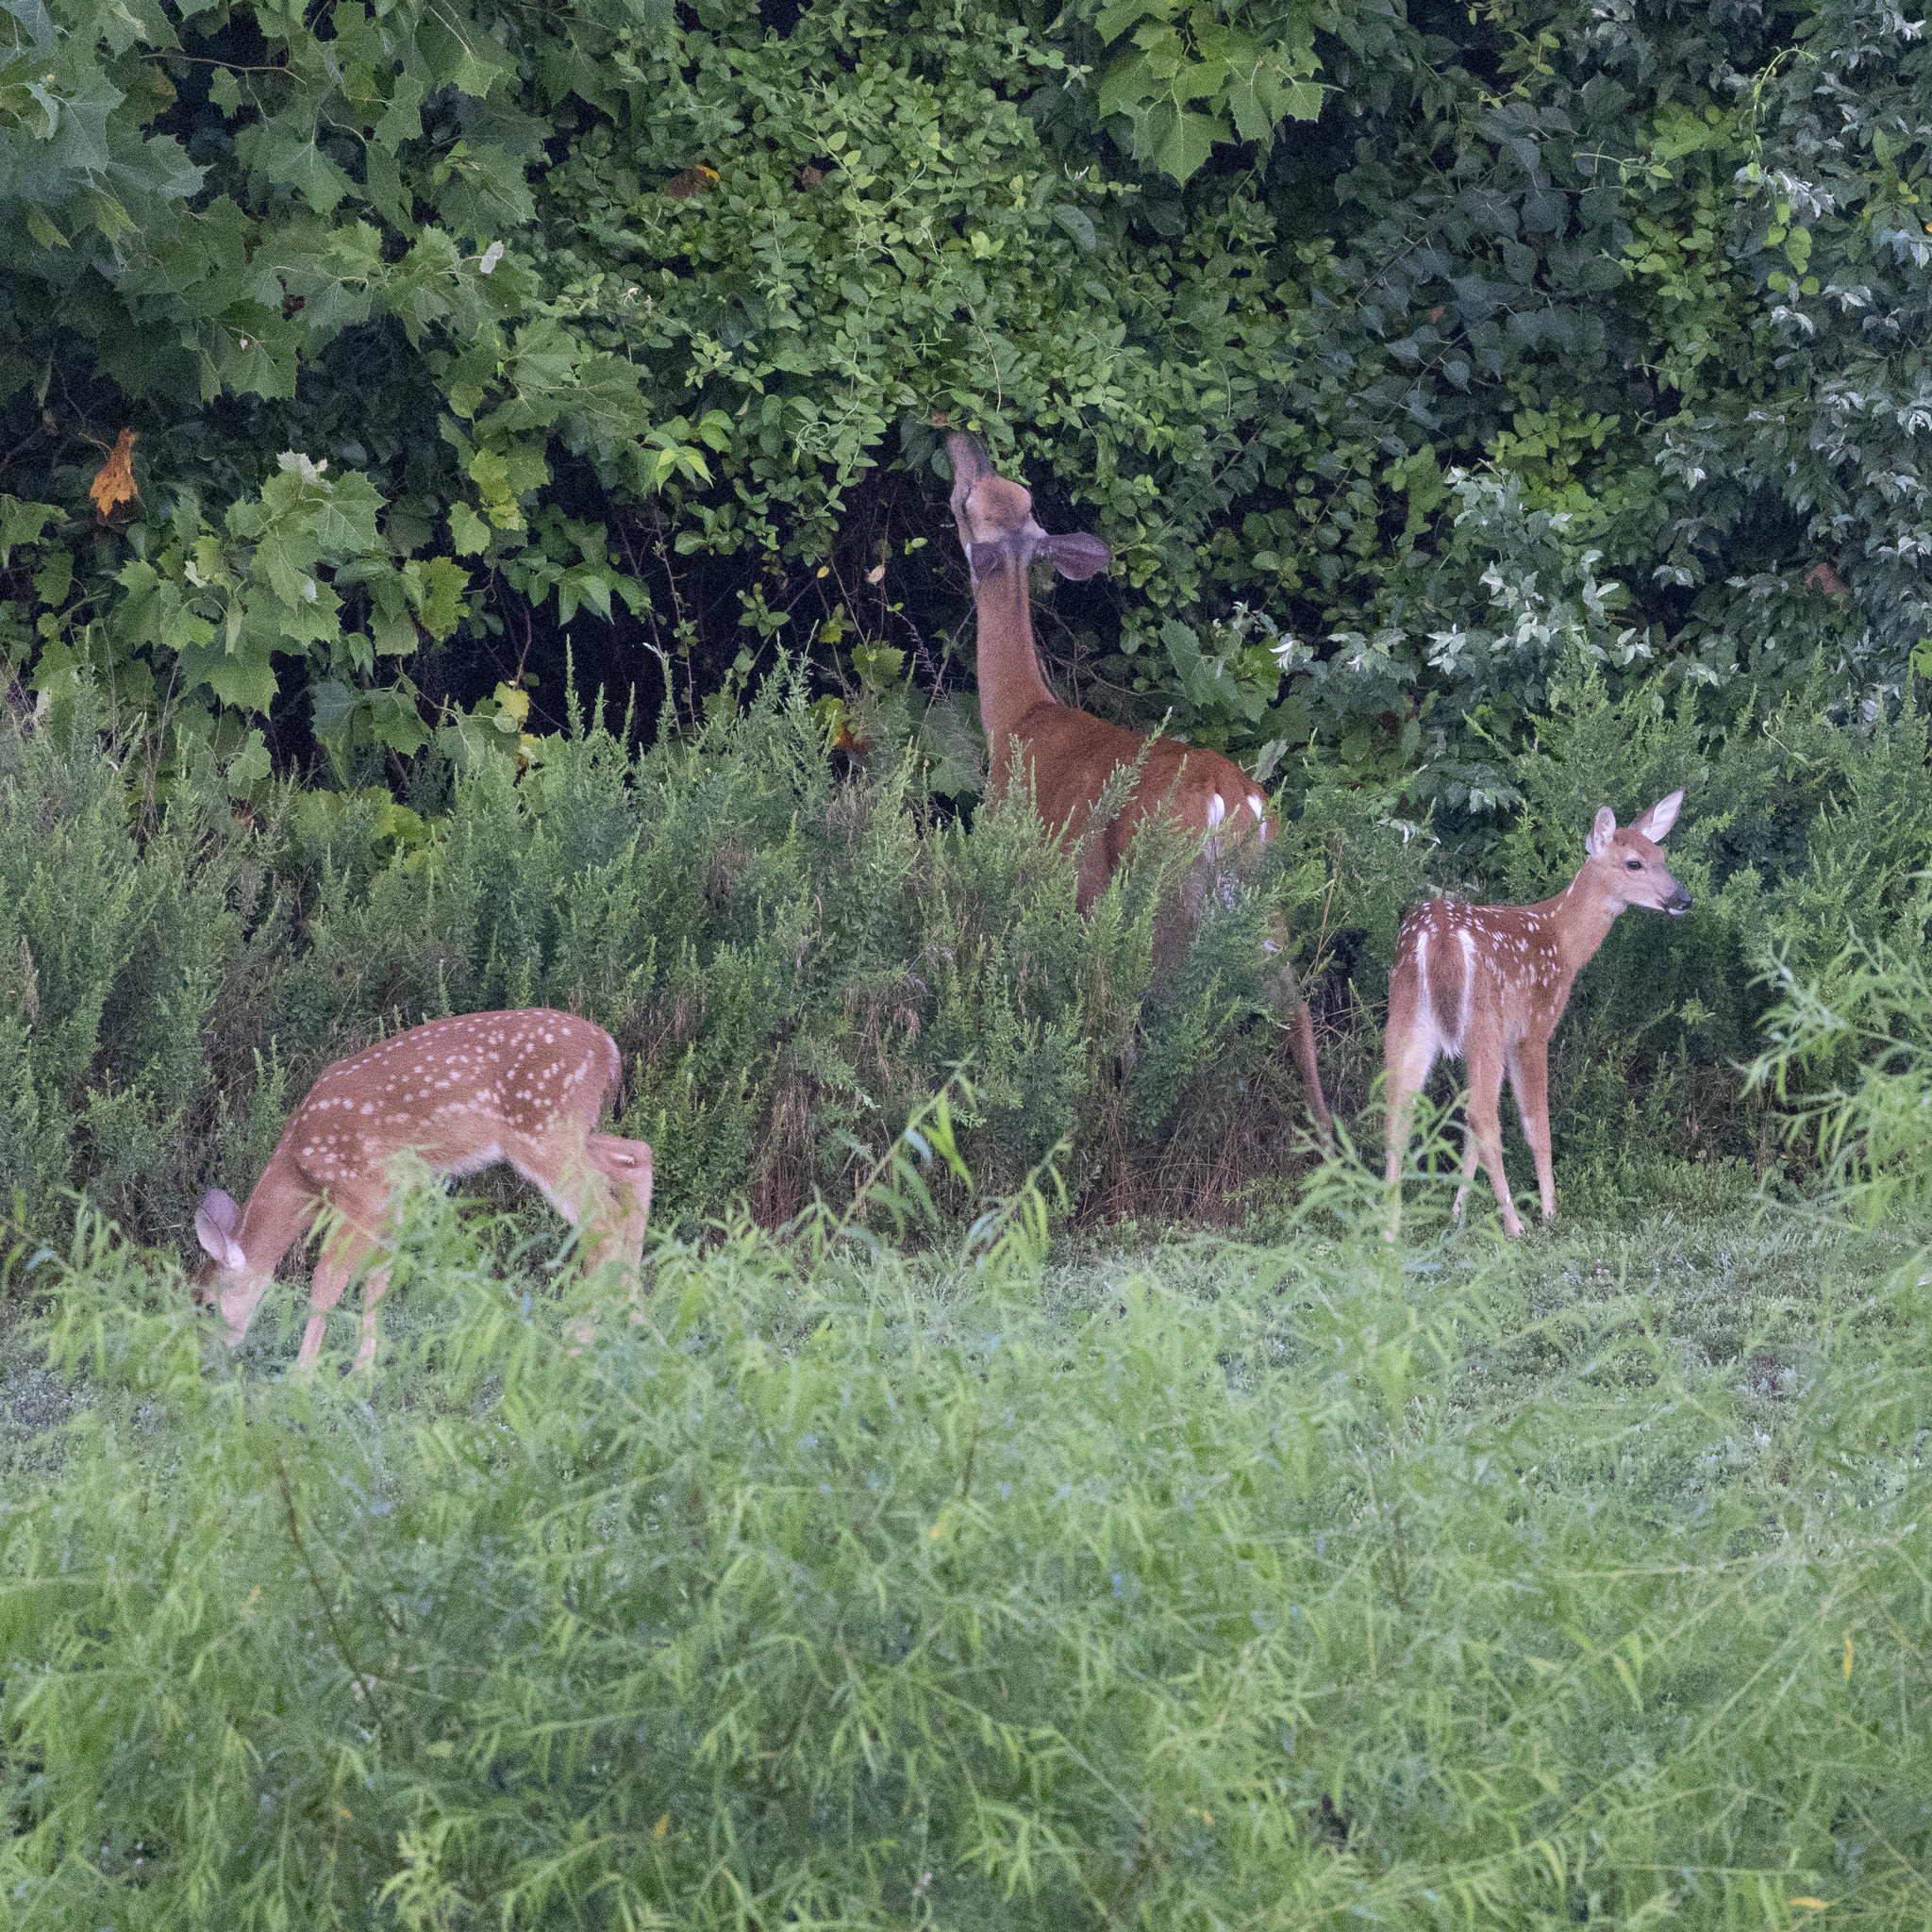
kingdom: Animalia
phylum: Chordata
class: Mammalia
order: Artiodactyla
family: Cervidae
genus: Odocoileus
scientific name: Odocoileus virginianus
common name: White-tailed deer
